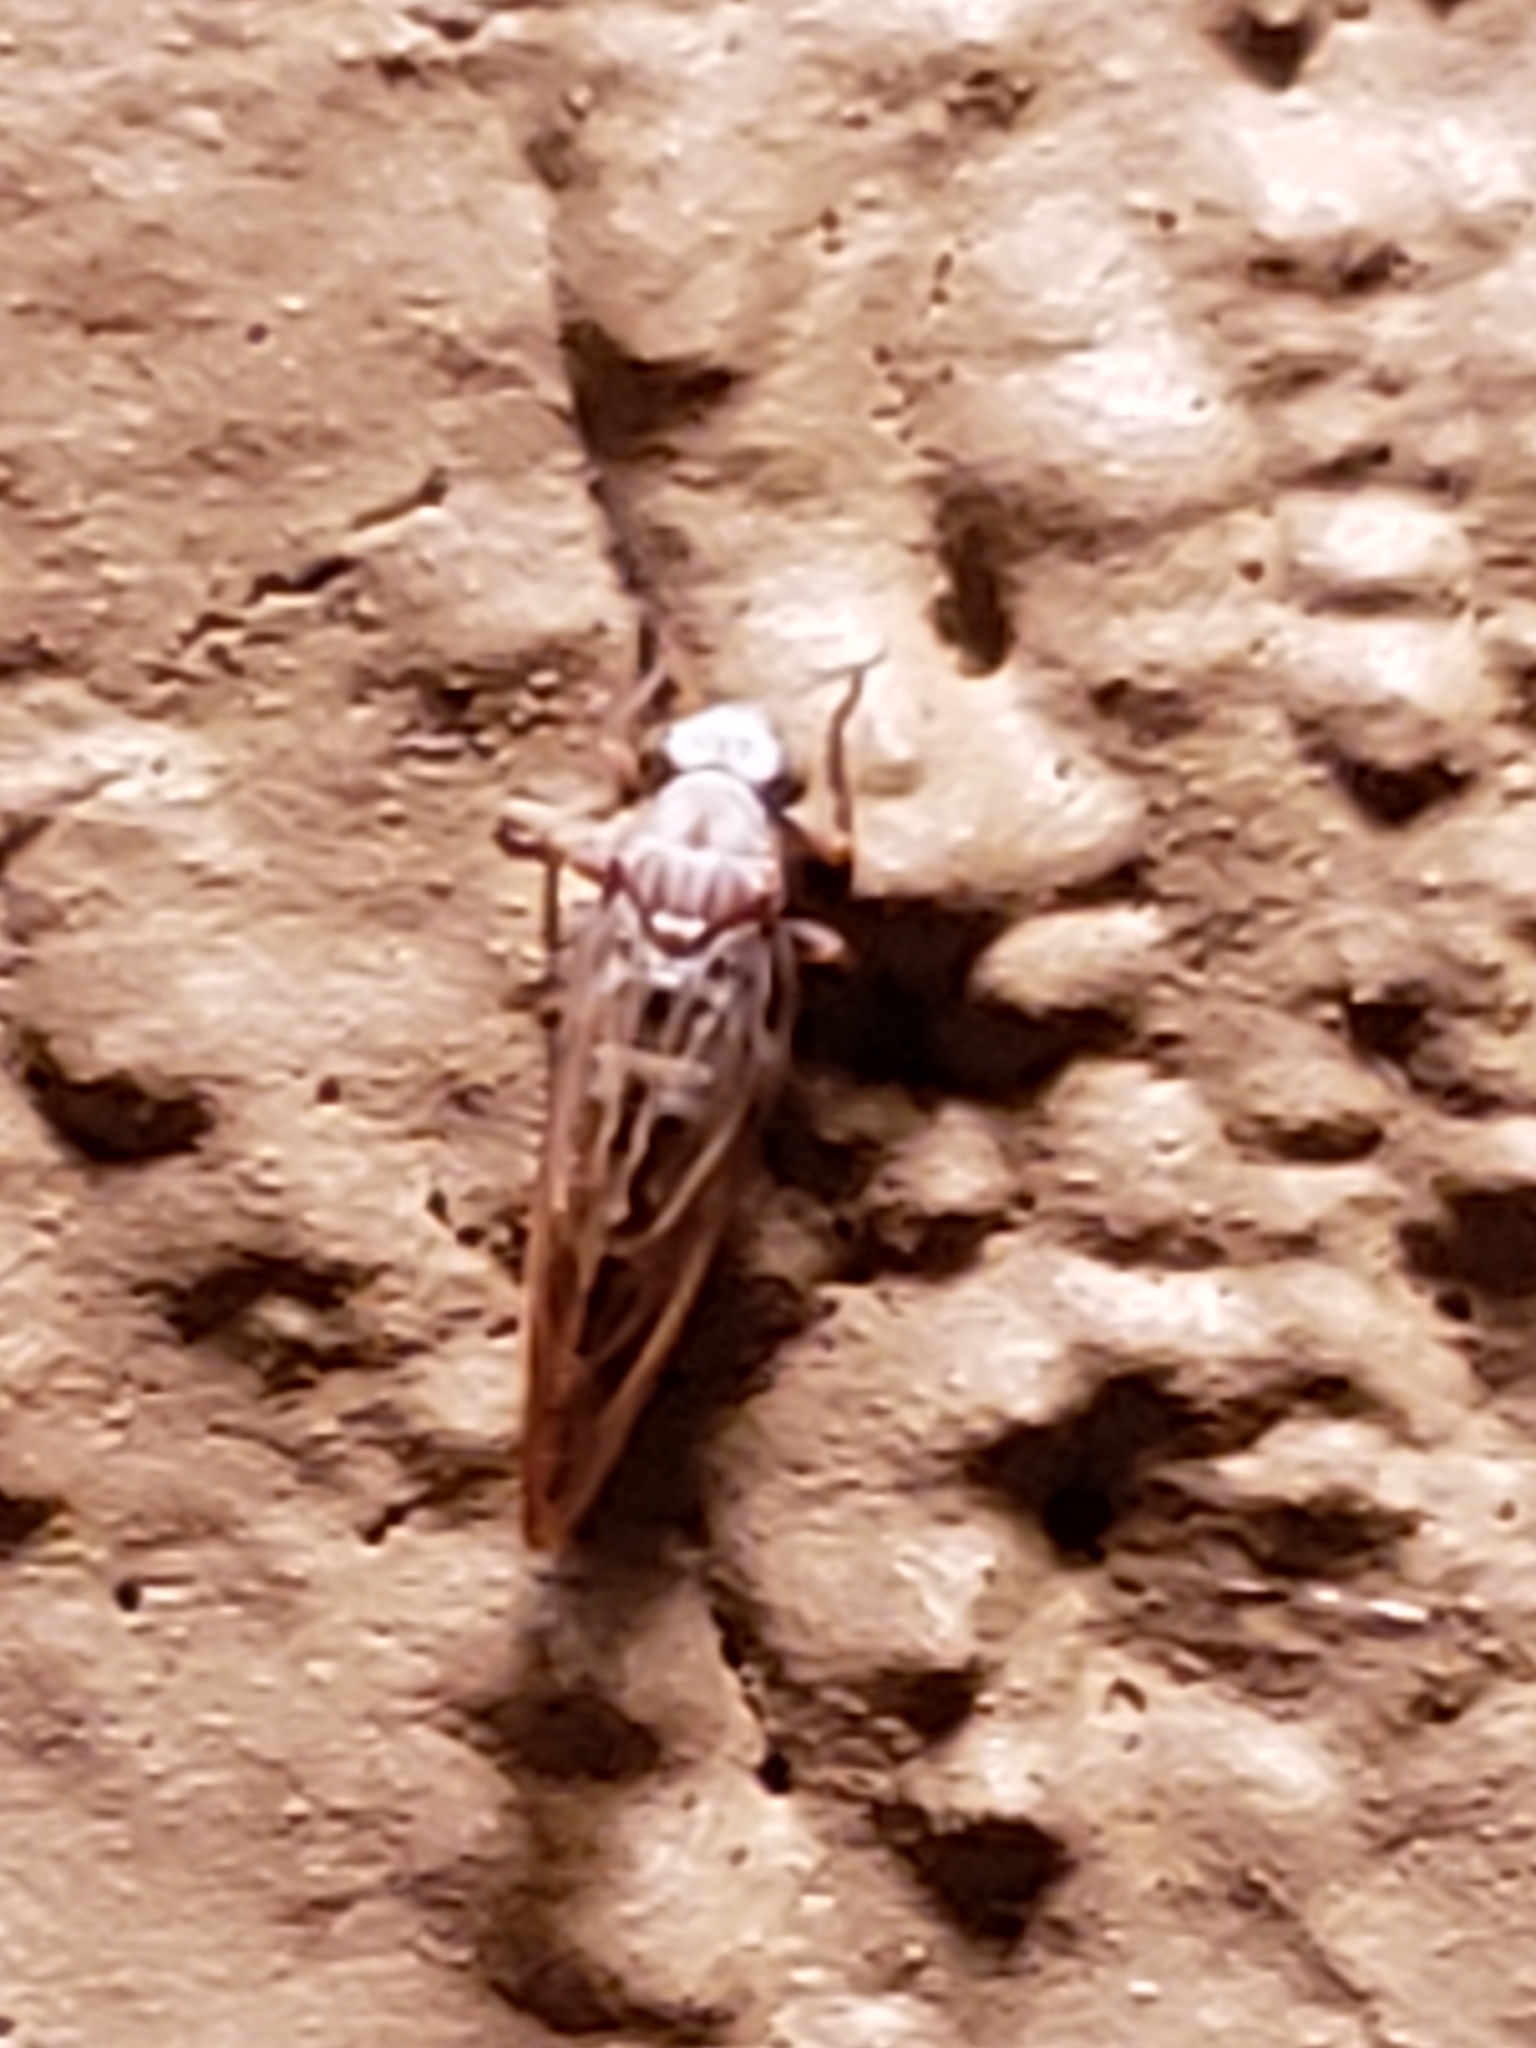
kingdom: Animalia
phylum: Arthropoda
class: Insecta
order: Hemiptera
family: Triozidae
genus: Trioza
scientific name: Trioza obtusa
